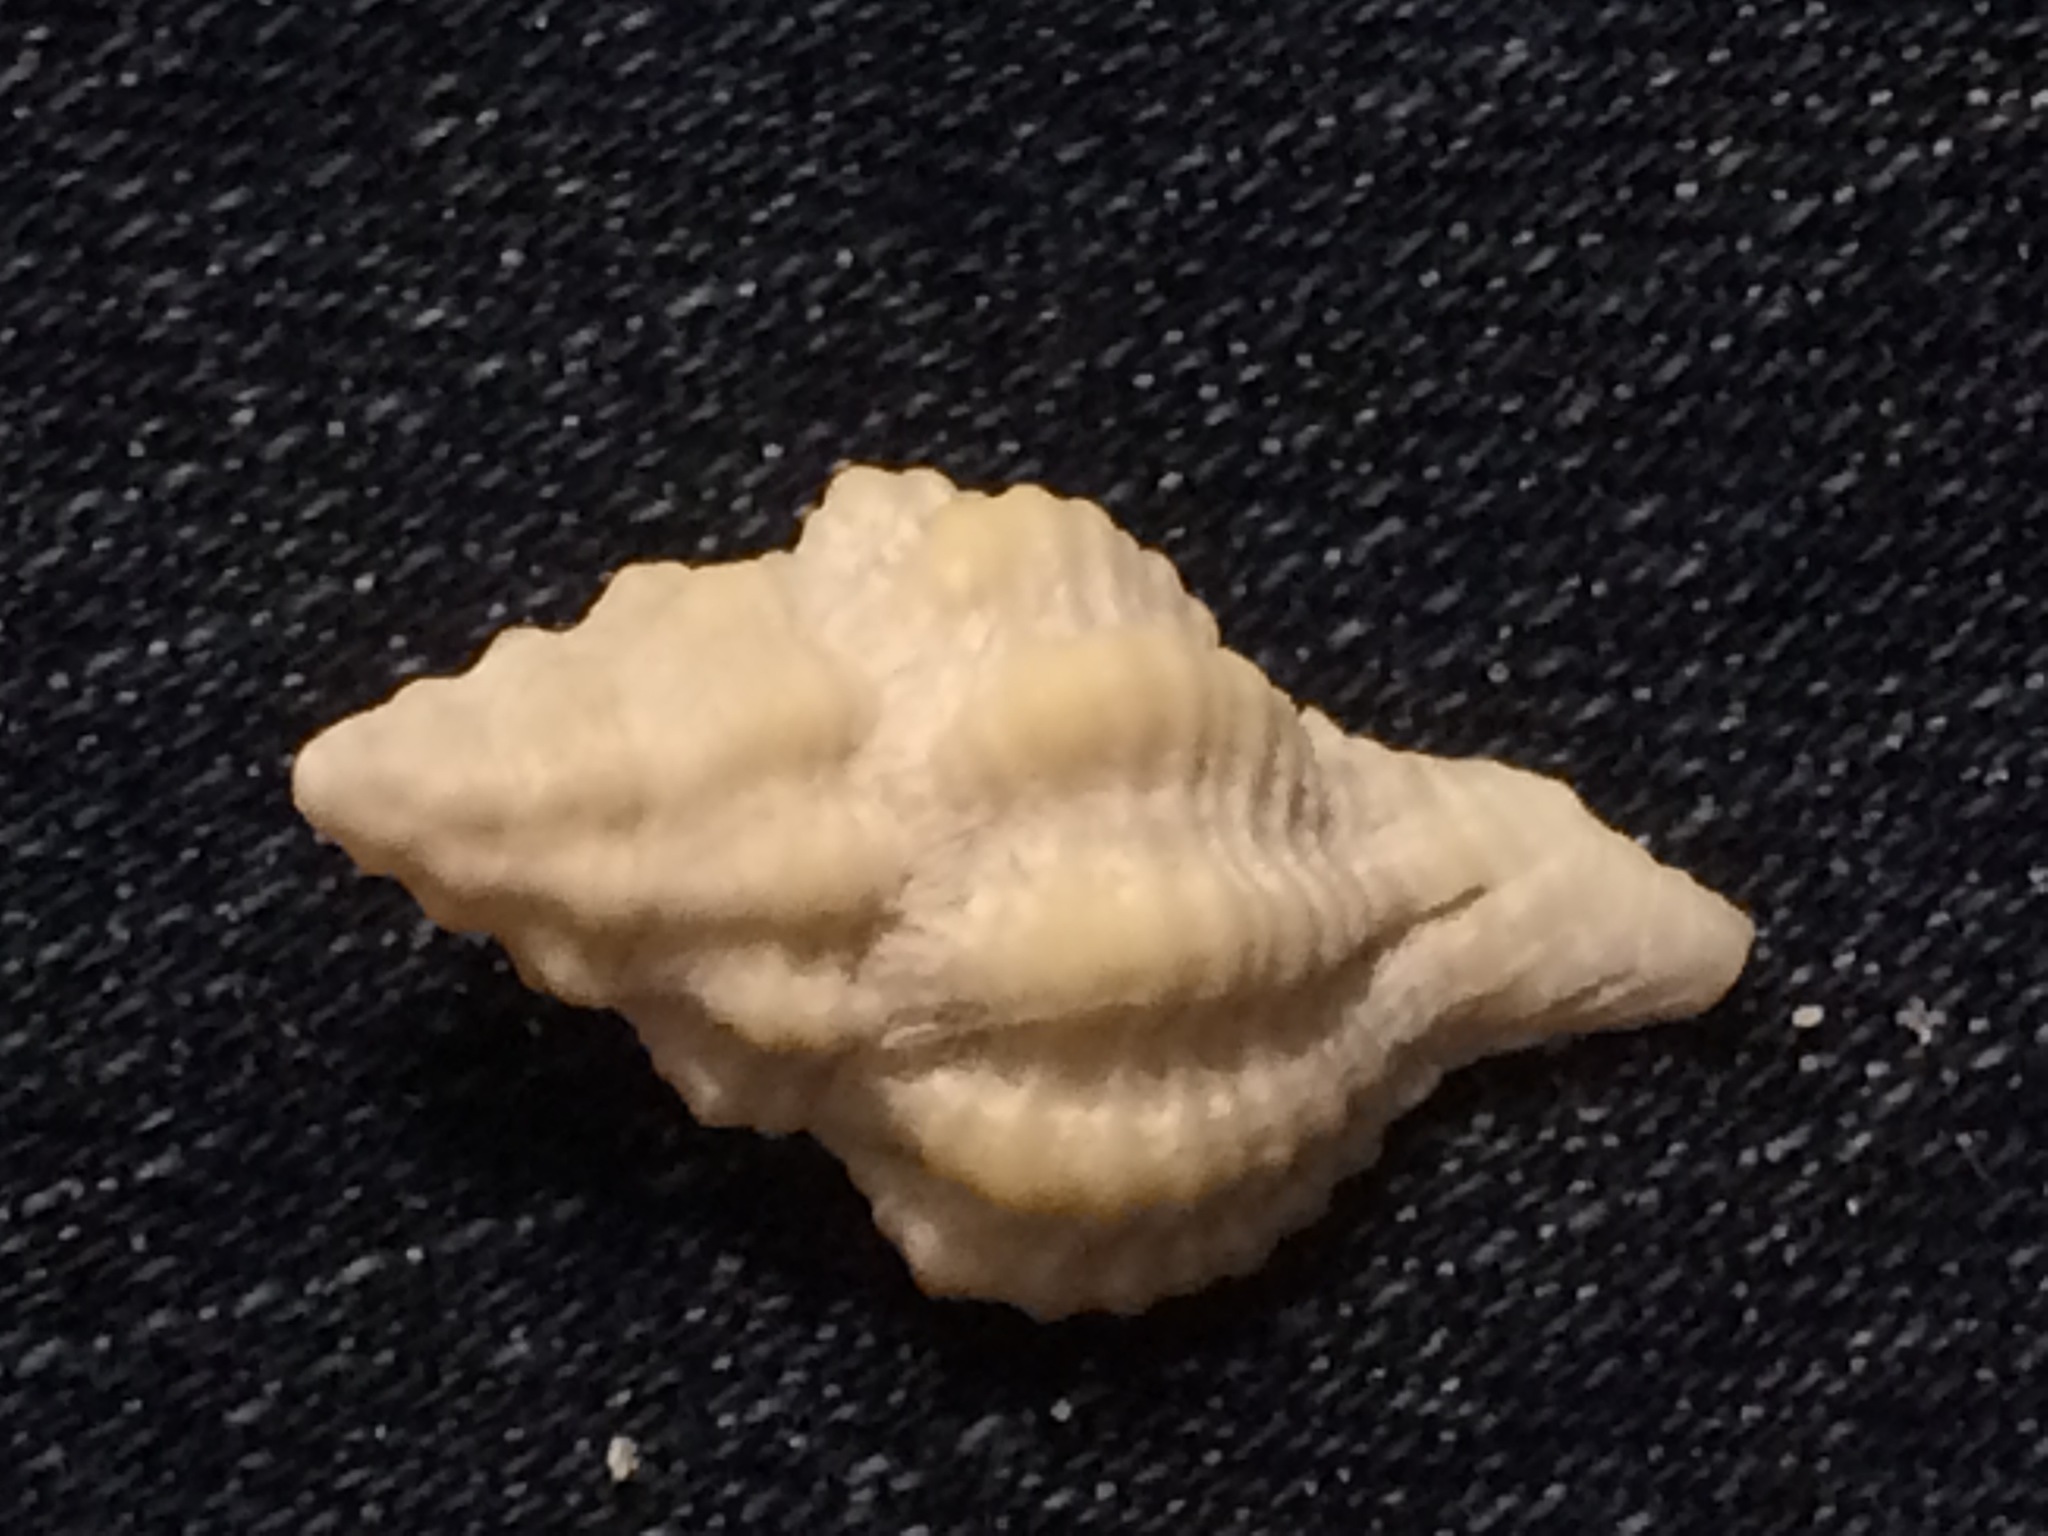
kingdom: Animalia
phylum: Mollusca
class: Gastropoda
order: Neogastropoda
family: Muricidae
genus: Calotrophon
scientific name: Calotrophon ostrearum
